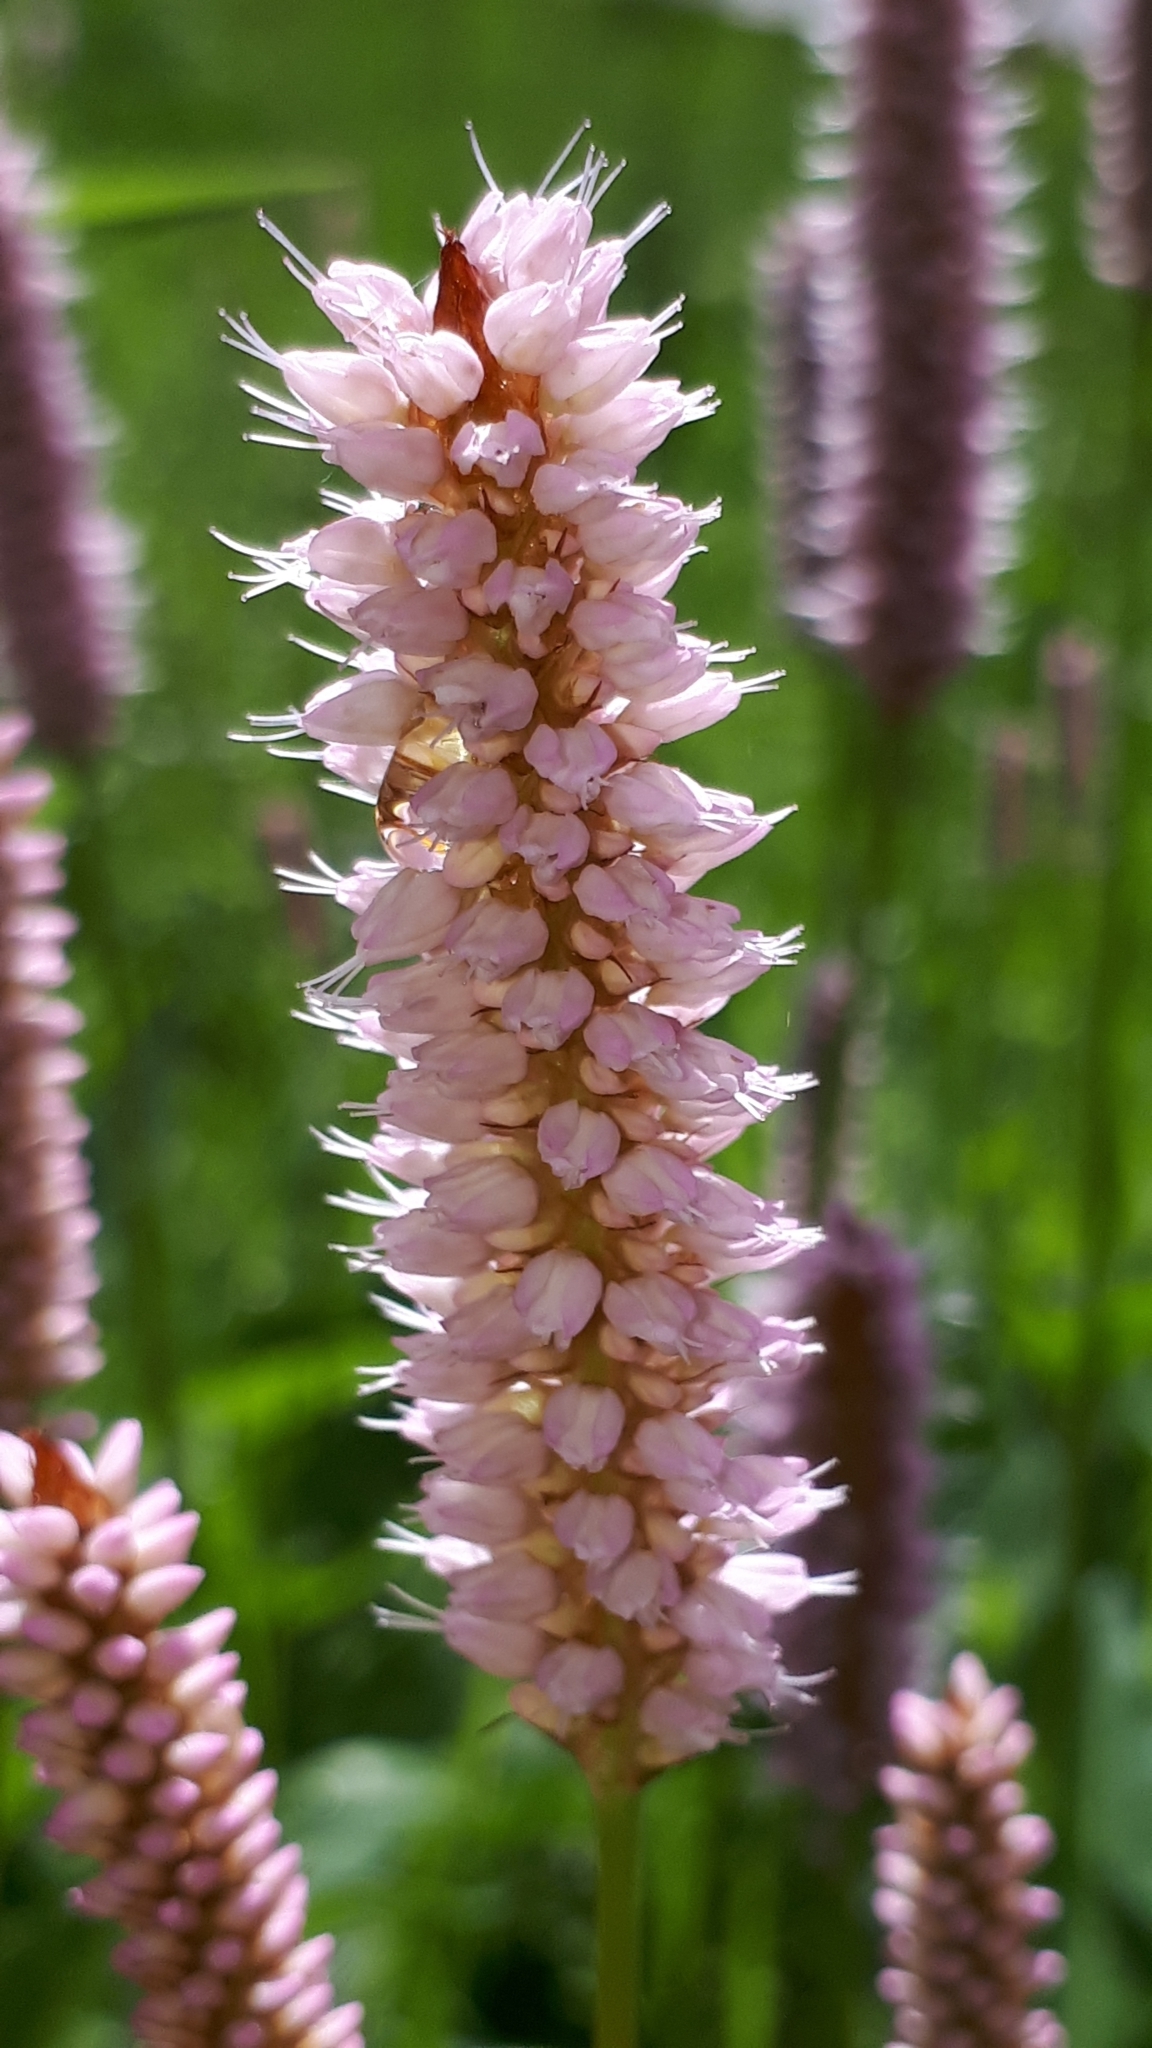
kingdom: Plantae
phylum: Tracheophyta
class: Magnoliopsida
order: Caryophyllales
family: Polygonaceae
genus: Bistorta
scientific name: Bistorta officinalis
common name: Common bistort
